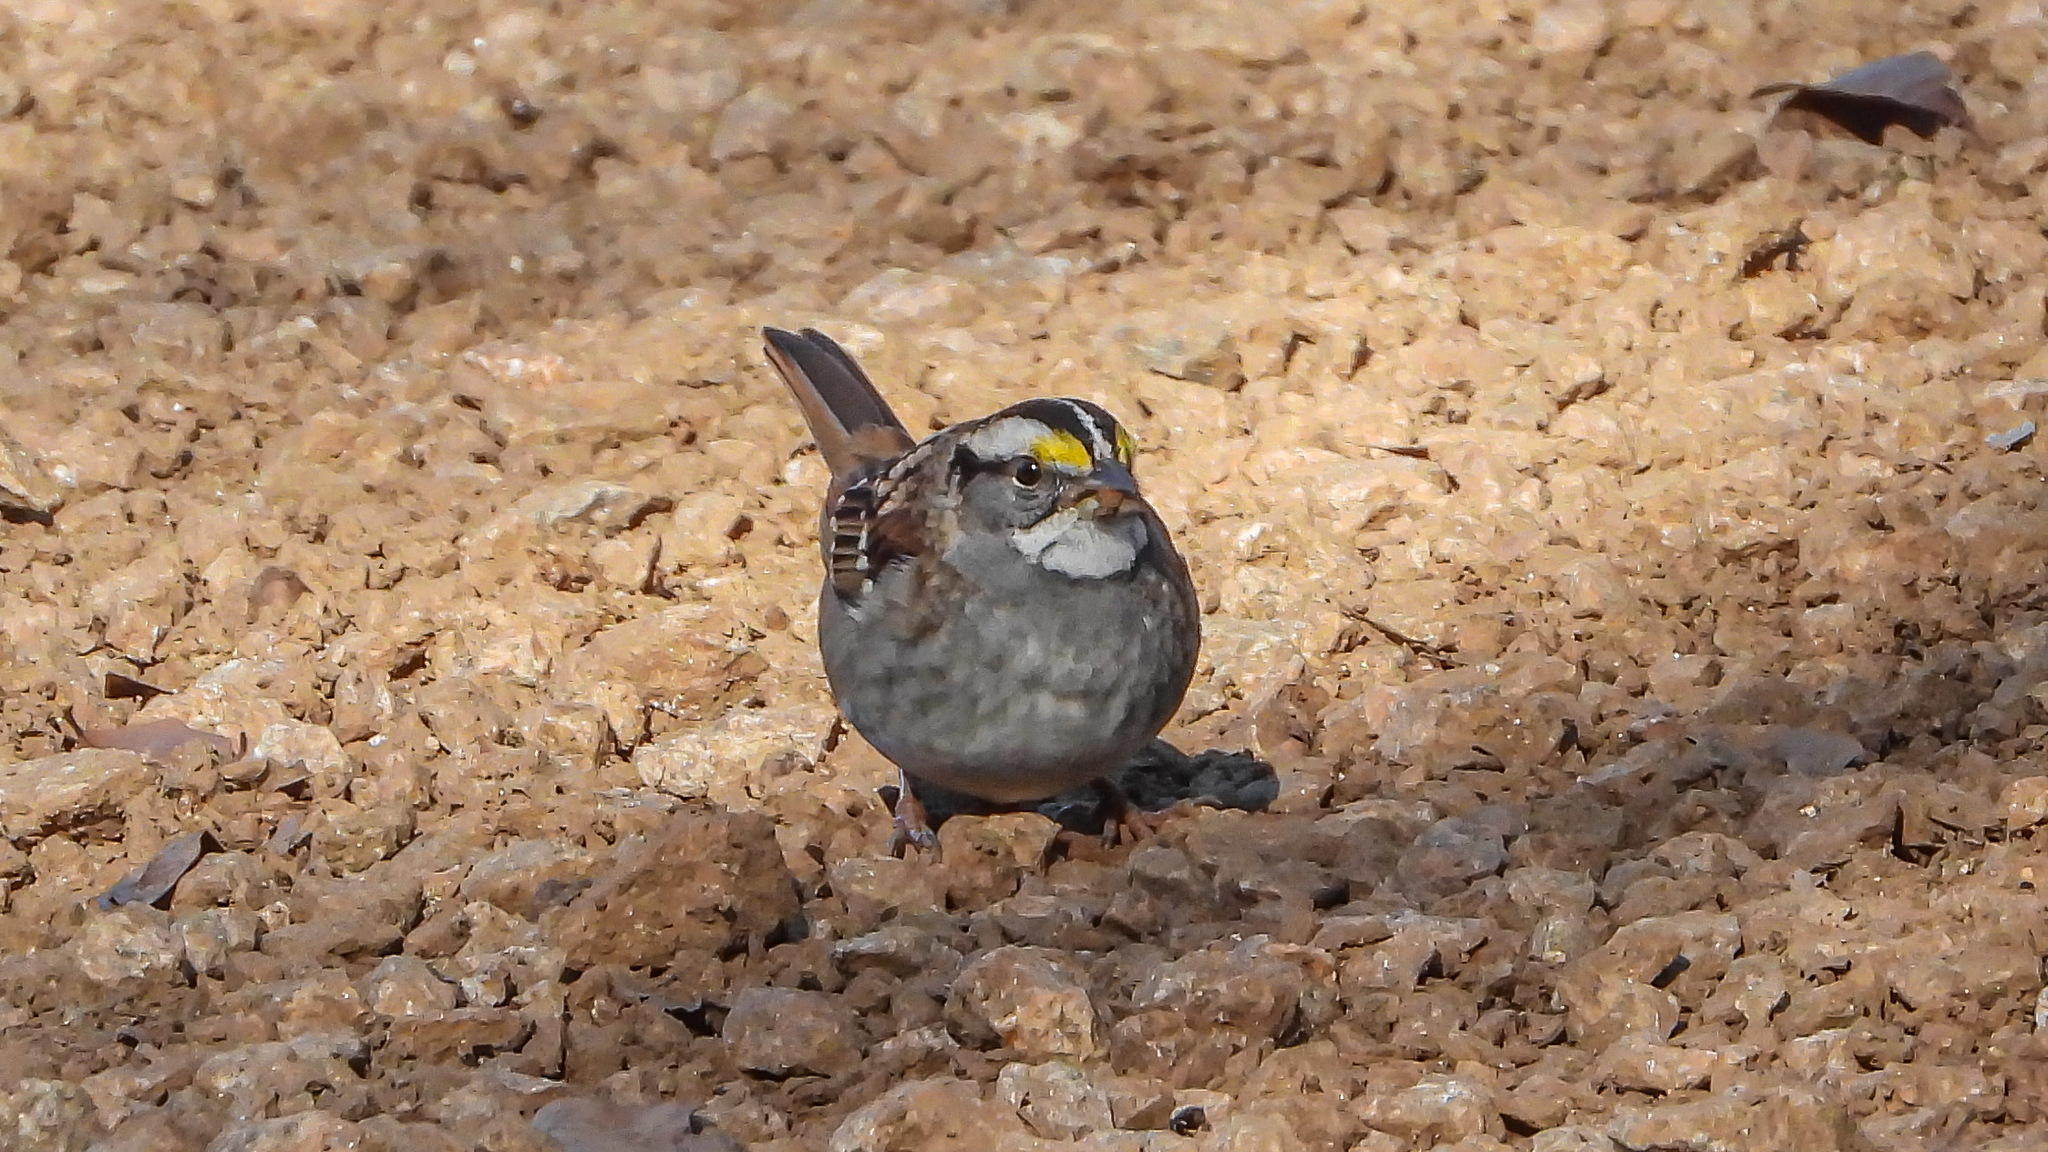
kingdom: Animalia
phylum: Chordata
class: Aves
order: Passeriformes
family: Passerellidae
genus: Zonotrichia
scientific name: Zonotrichia albicollis
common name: White-throated sparrow
